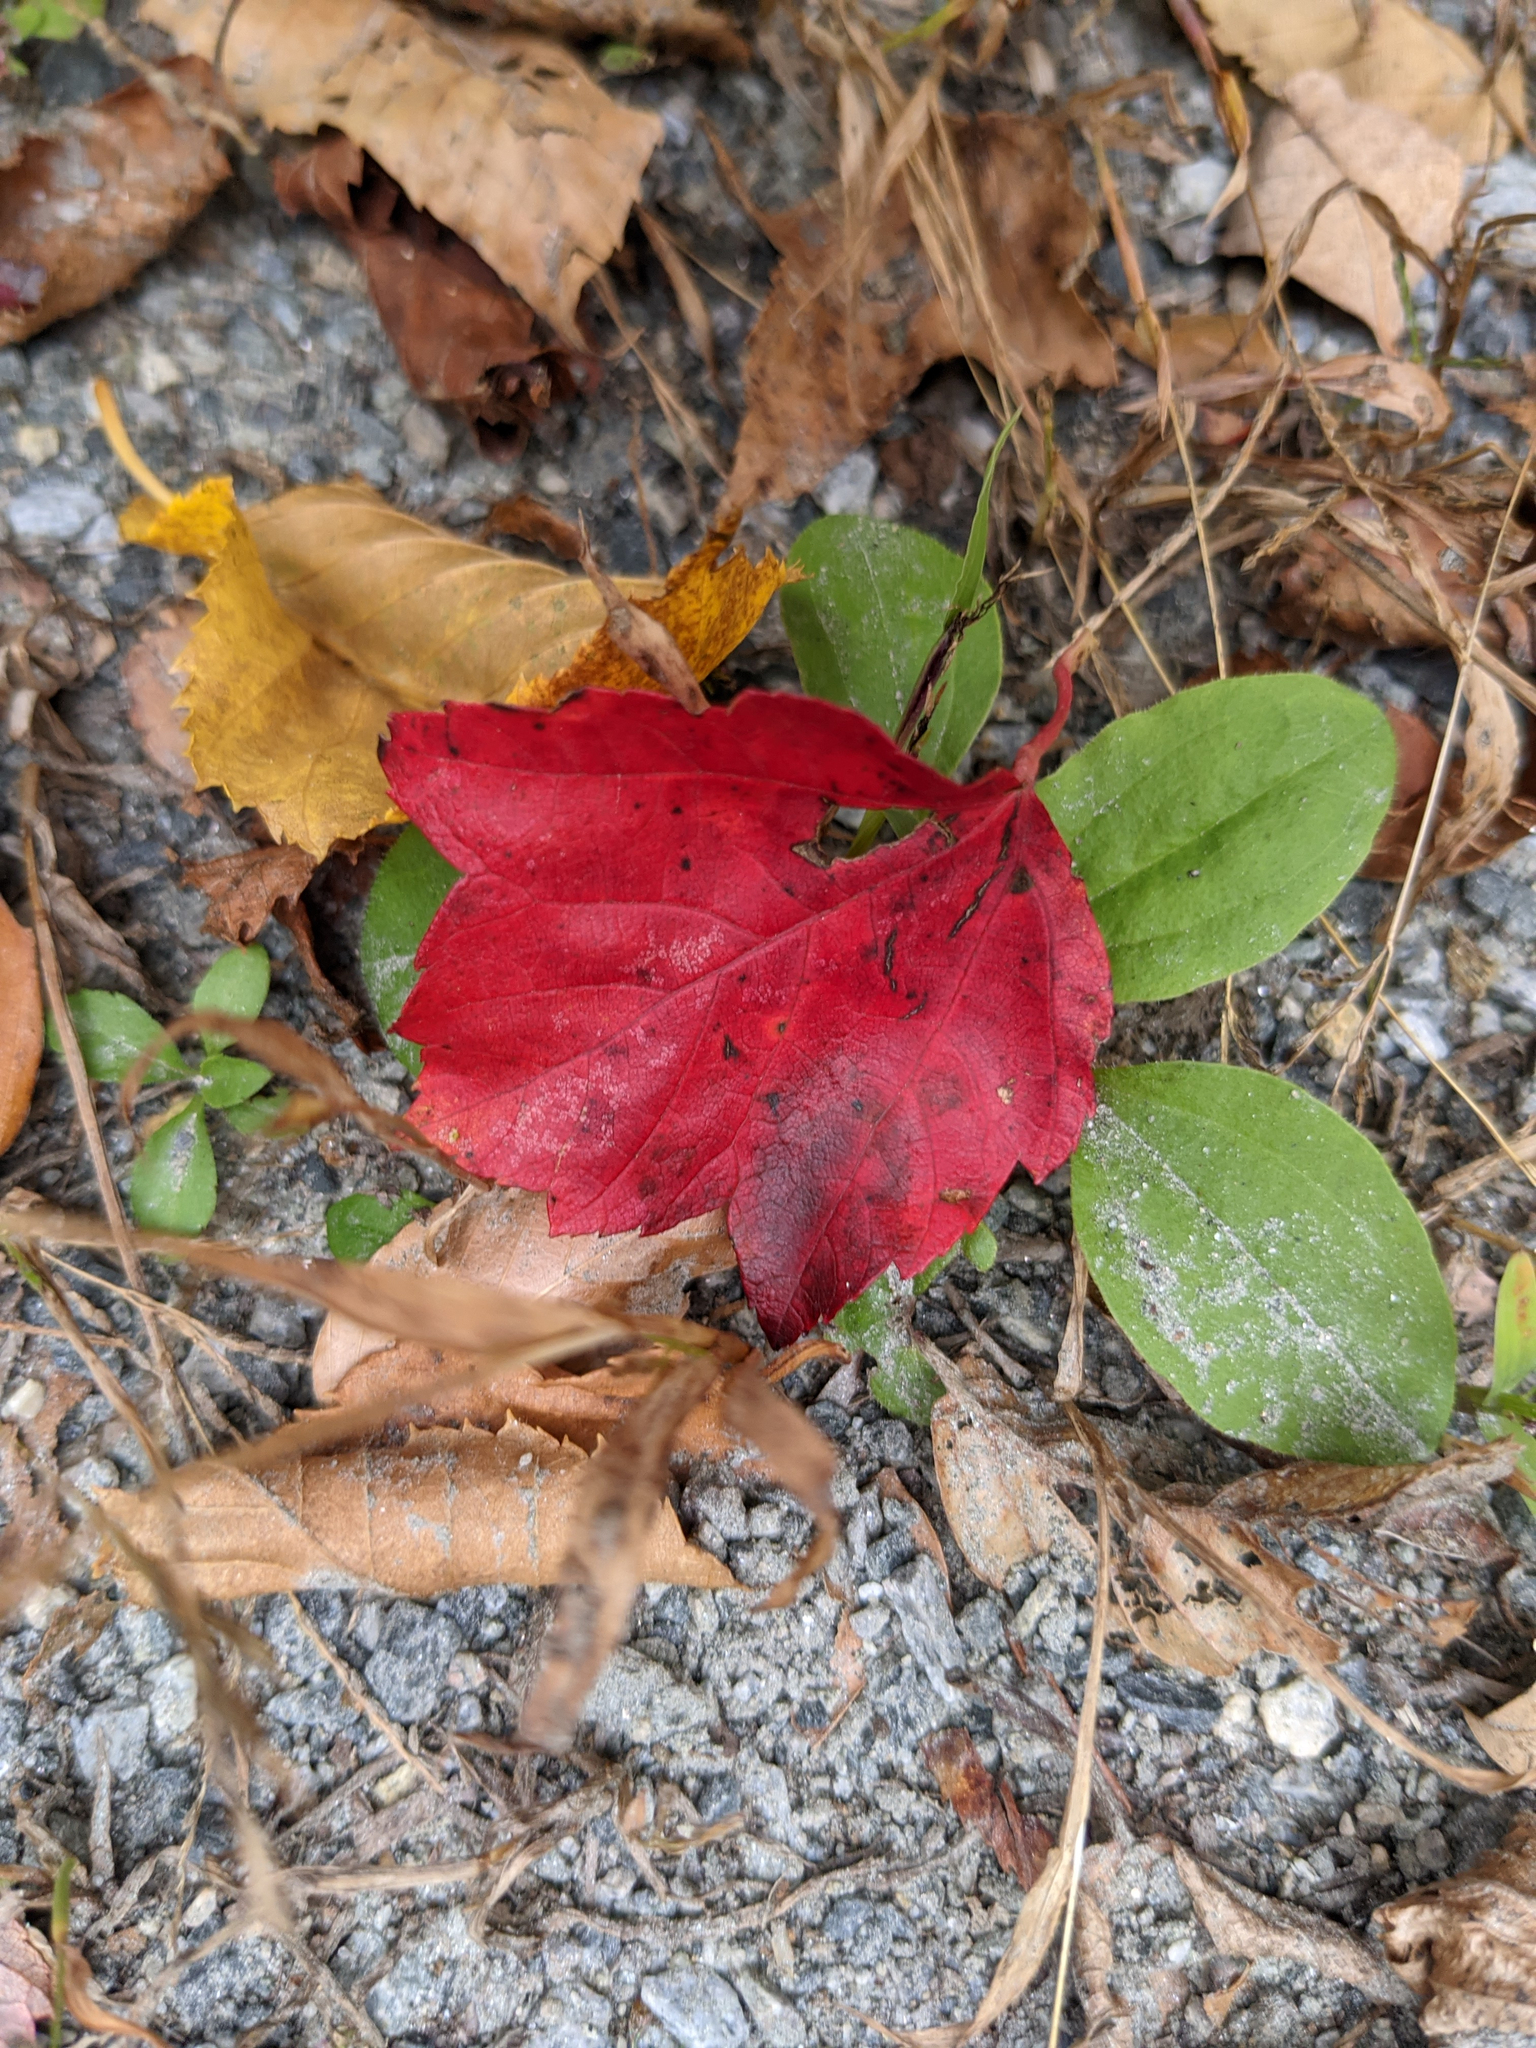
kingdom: Plantae
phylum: Tracheophyta
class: Magnoliopsida
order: Sapindales
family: Sapindaceae
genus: Acer
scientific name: Acer rubrum
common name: Red maple
